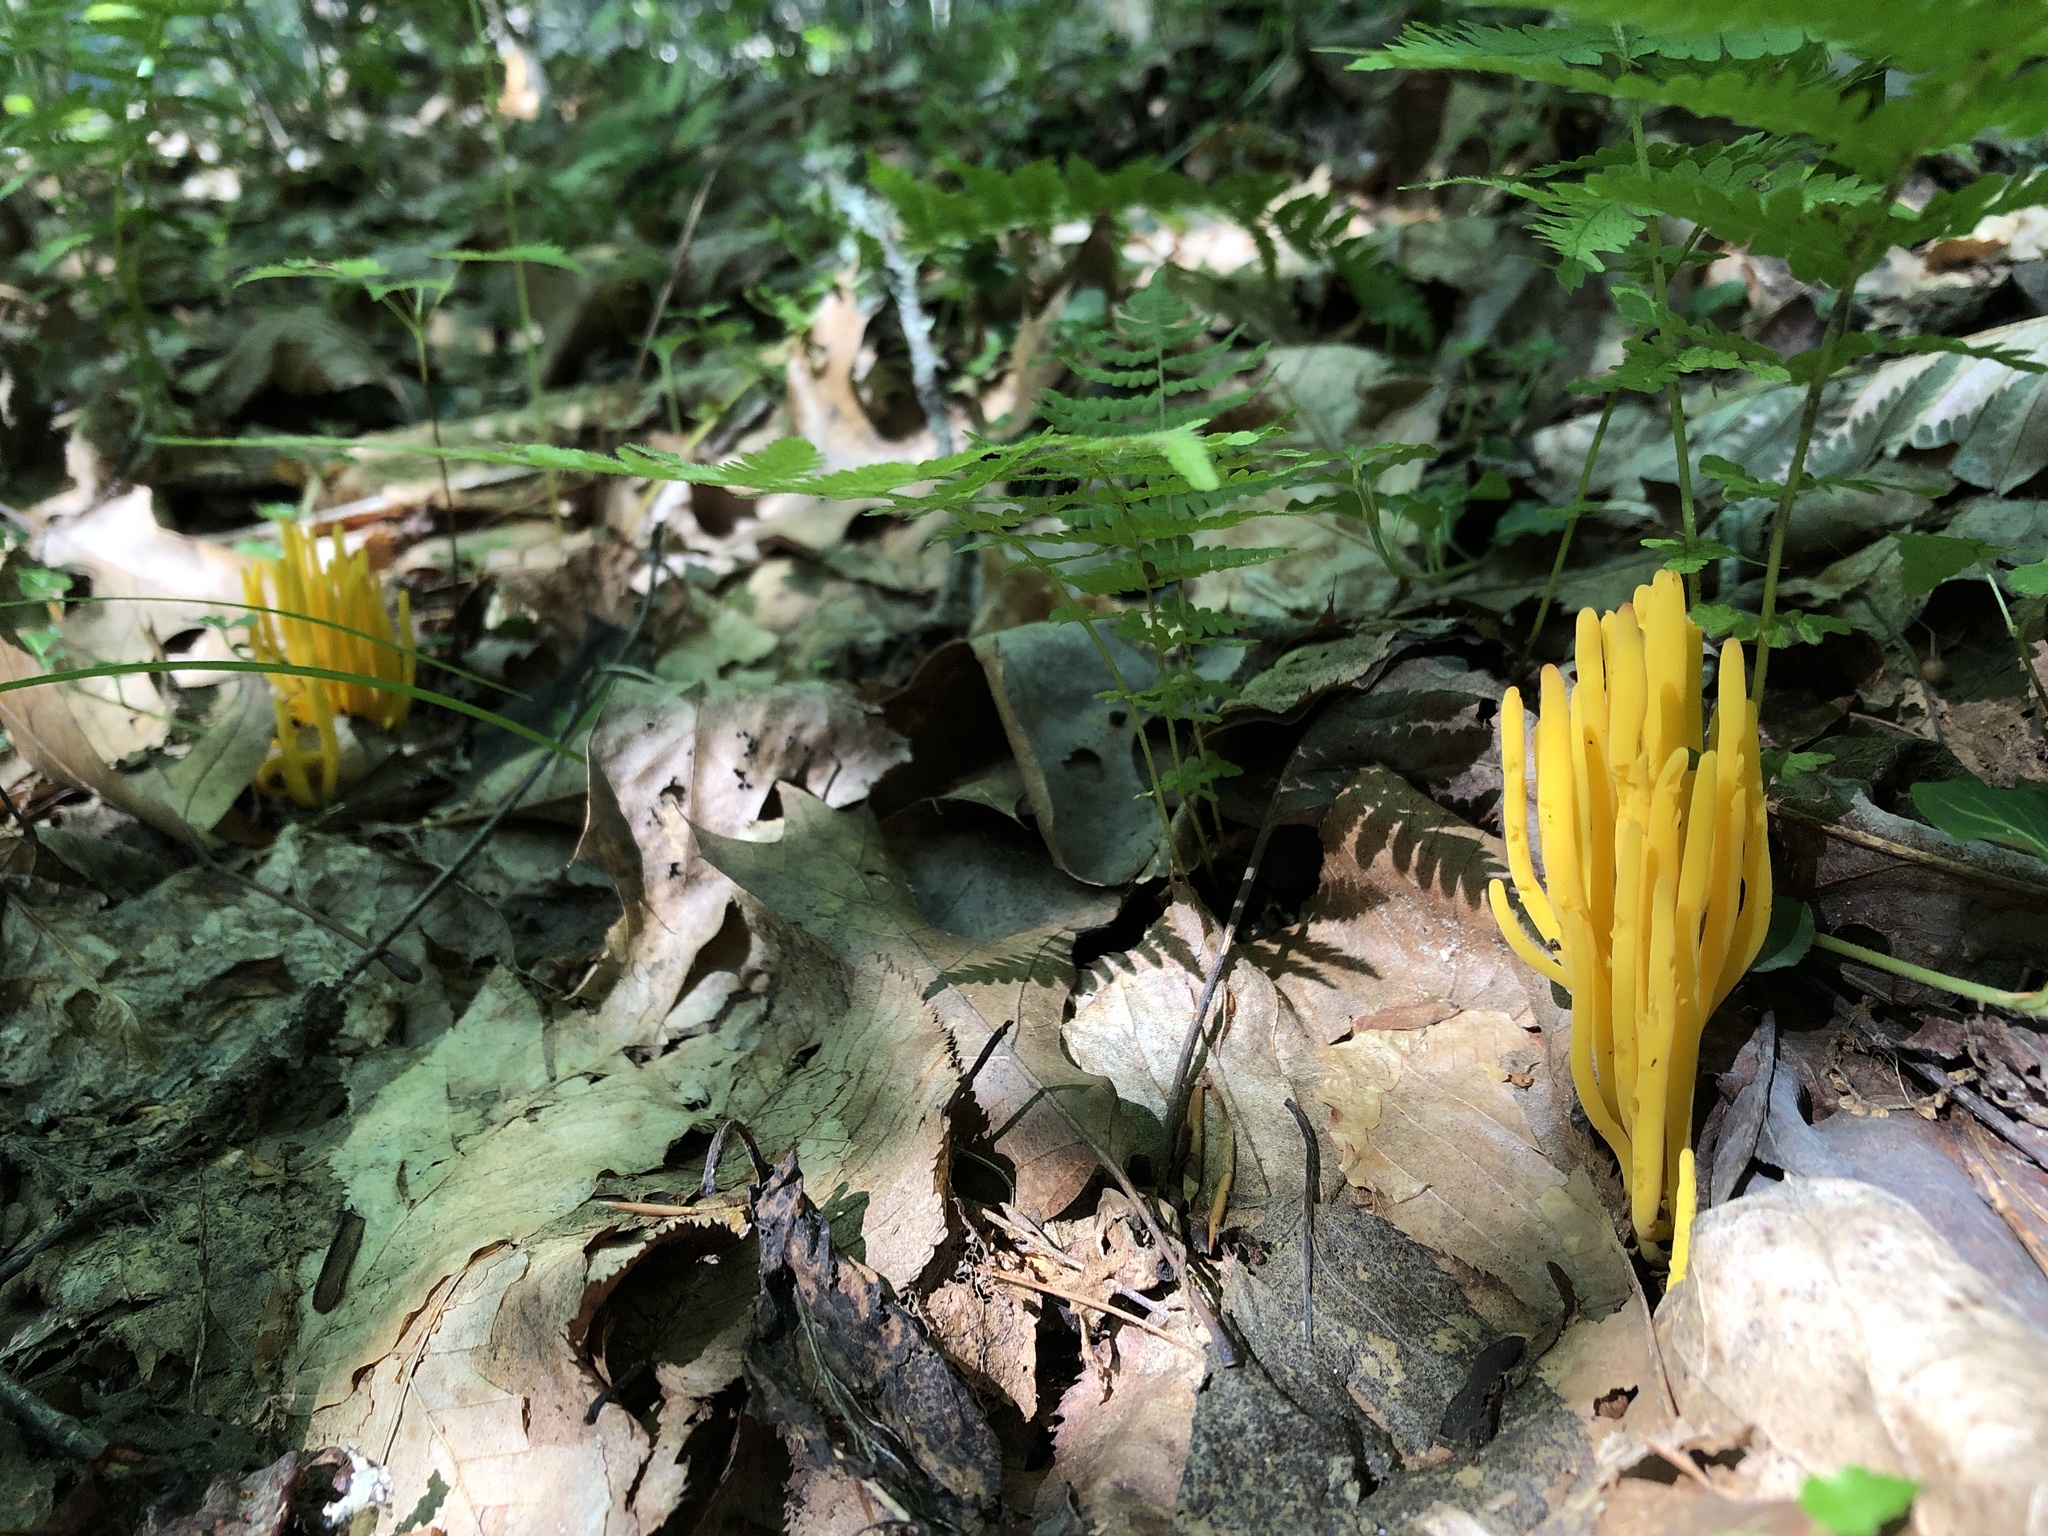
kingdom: Fungi
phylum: Basidiomycota
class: Agaricomycetes
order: Agaricales
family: Clavariaceae
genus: Clavulinopsis
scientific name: Clavulinopsis fusiformis
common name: Golden spindles
